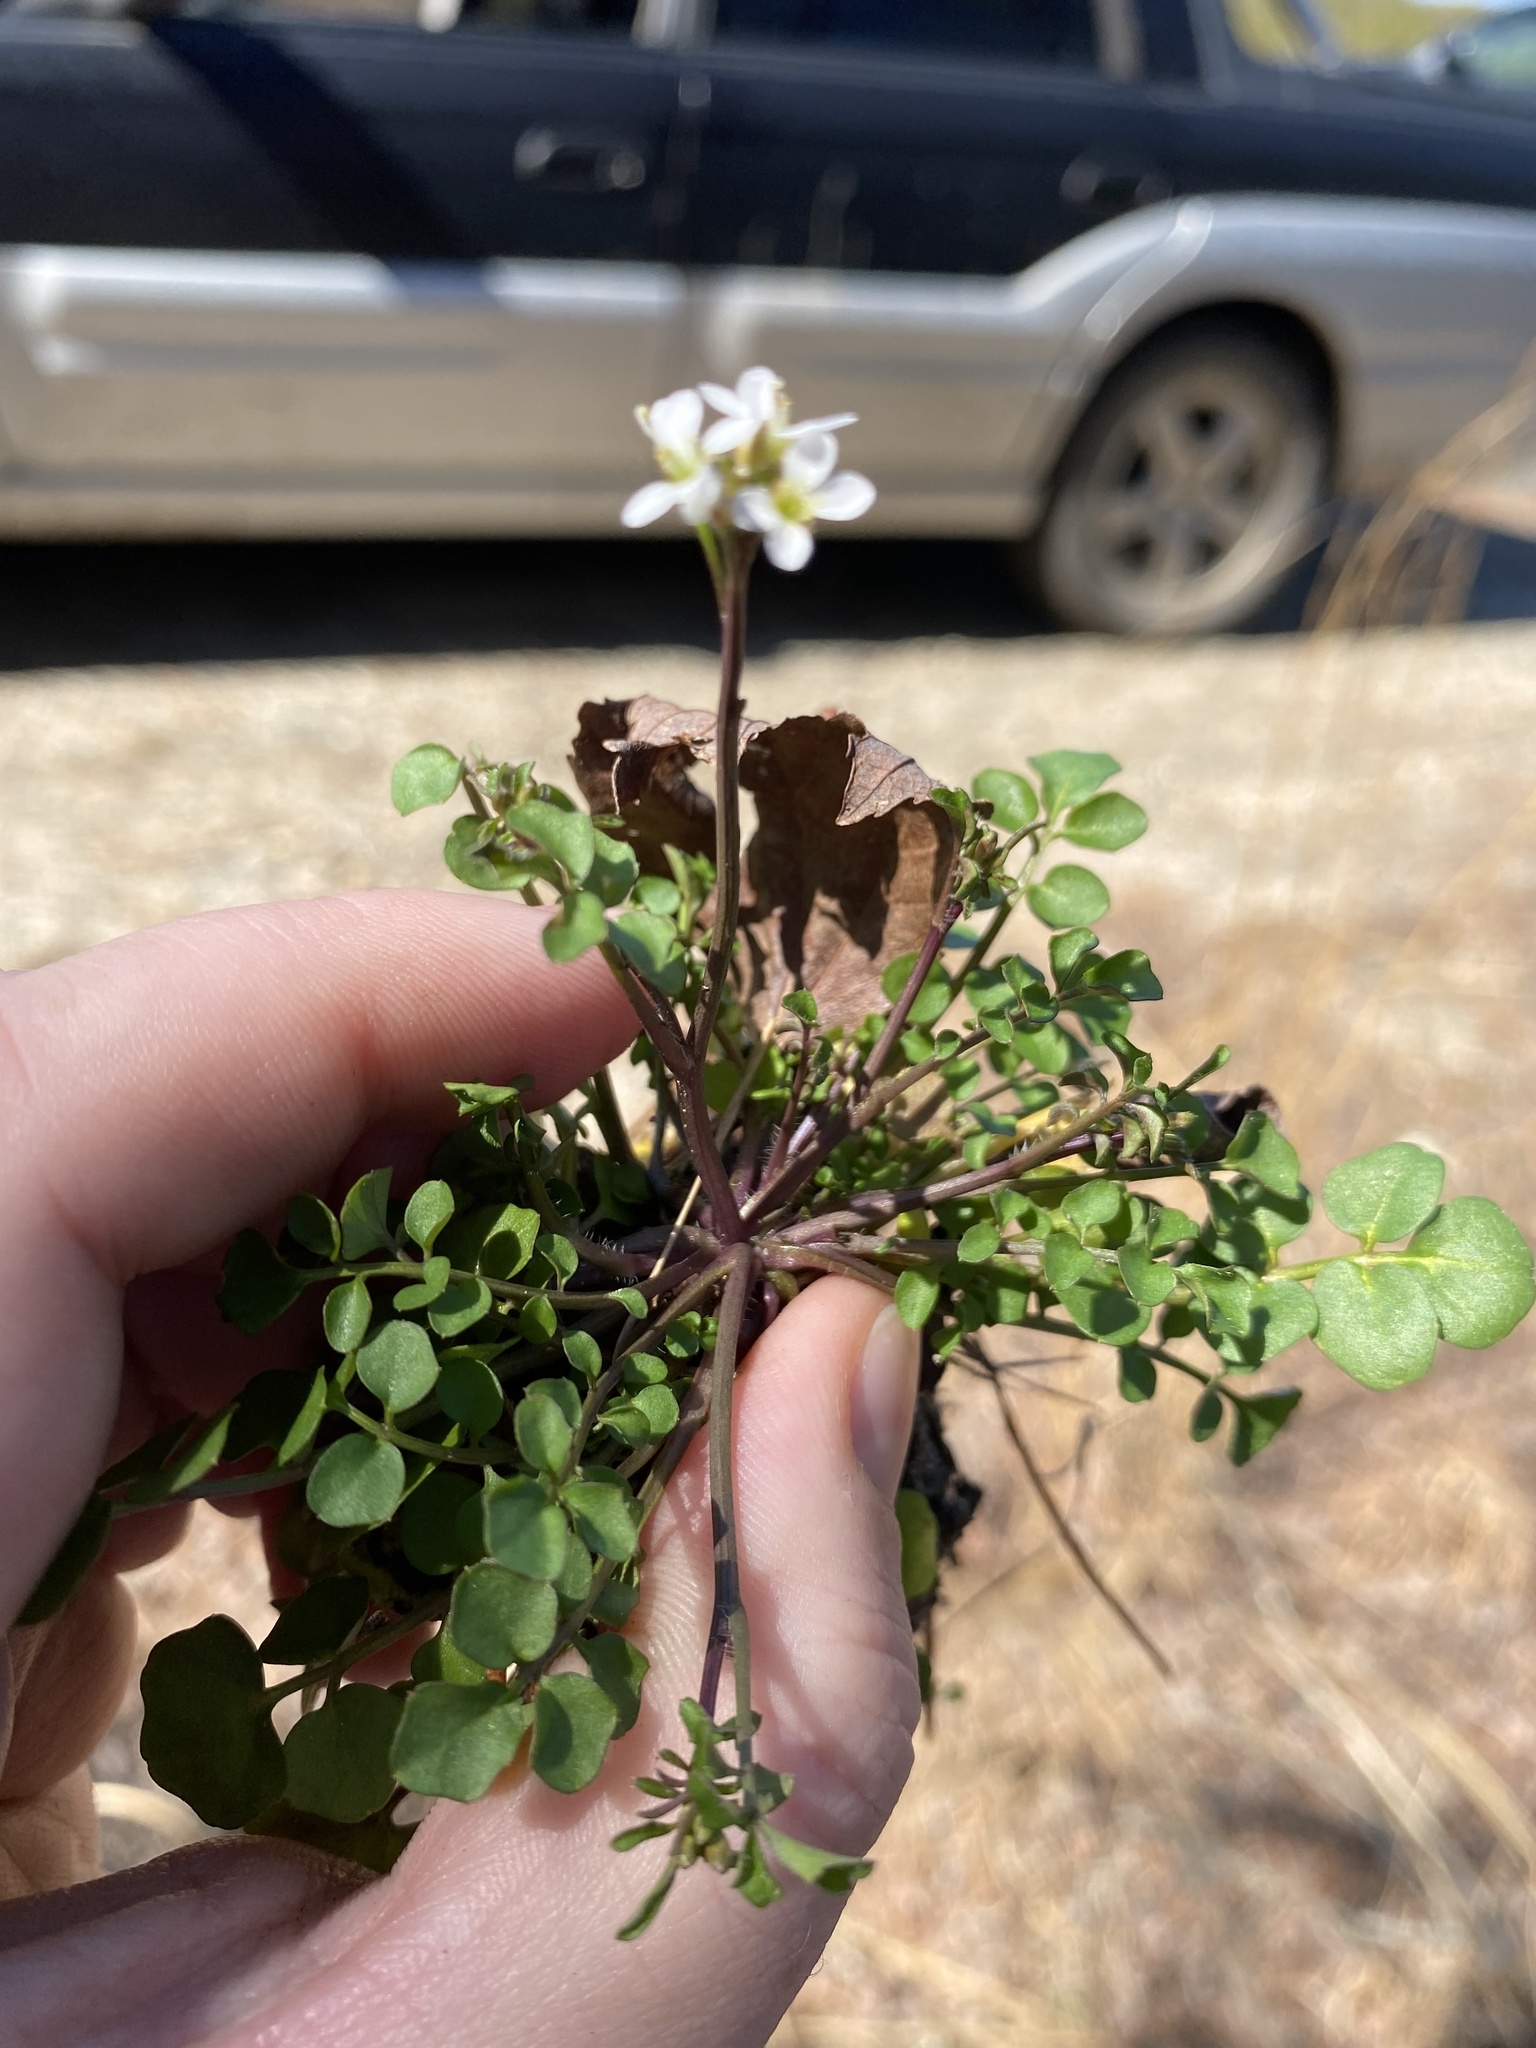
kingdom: Plantae
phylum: Tracheophyta
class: Magnoliopsida
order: Brassicales
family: Brassicaceae
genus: Cardamine
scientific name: Cardamine hirsuta
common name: Hairy bittercress
